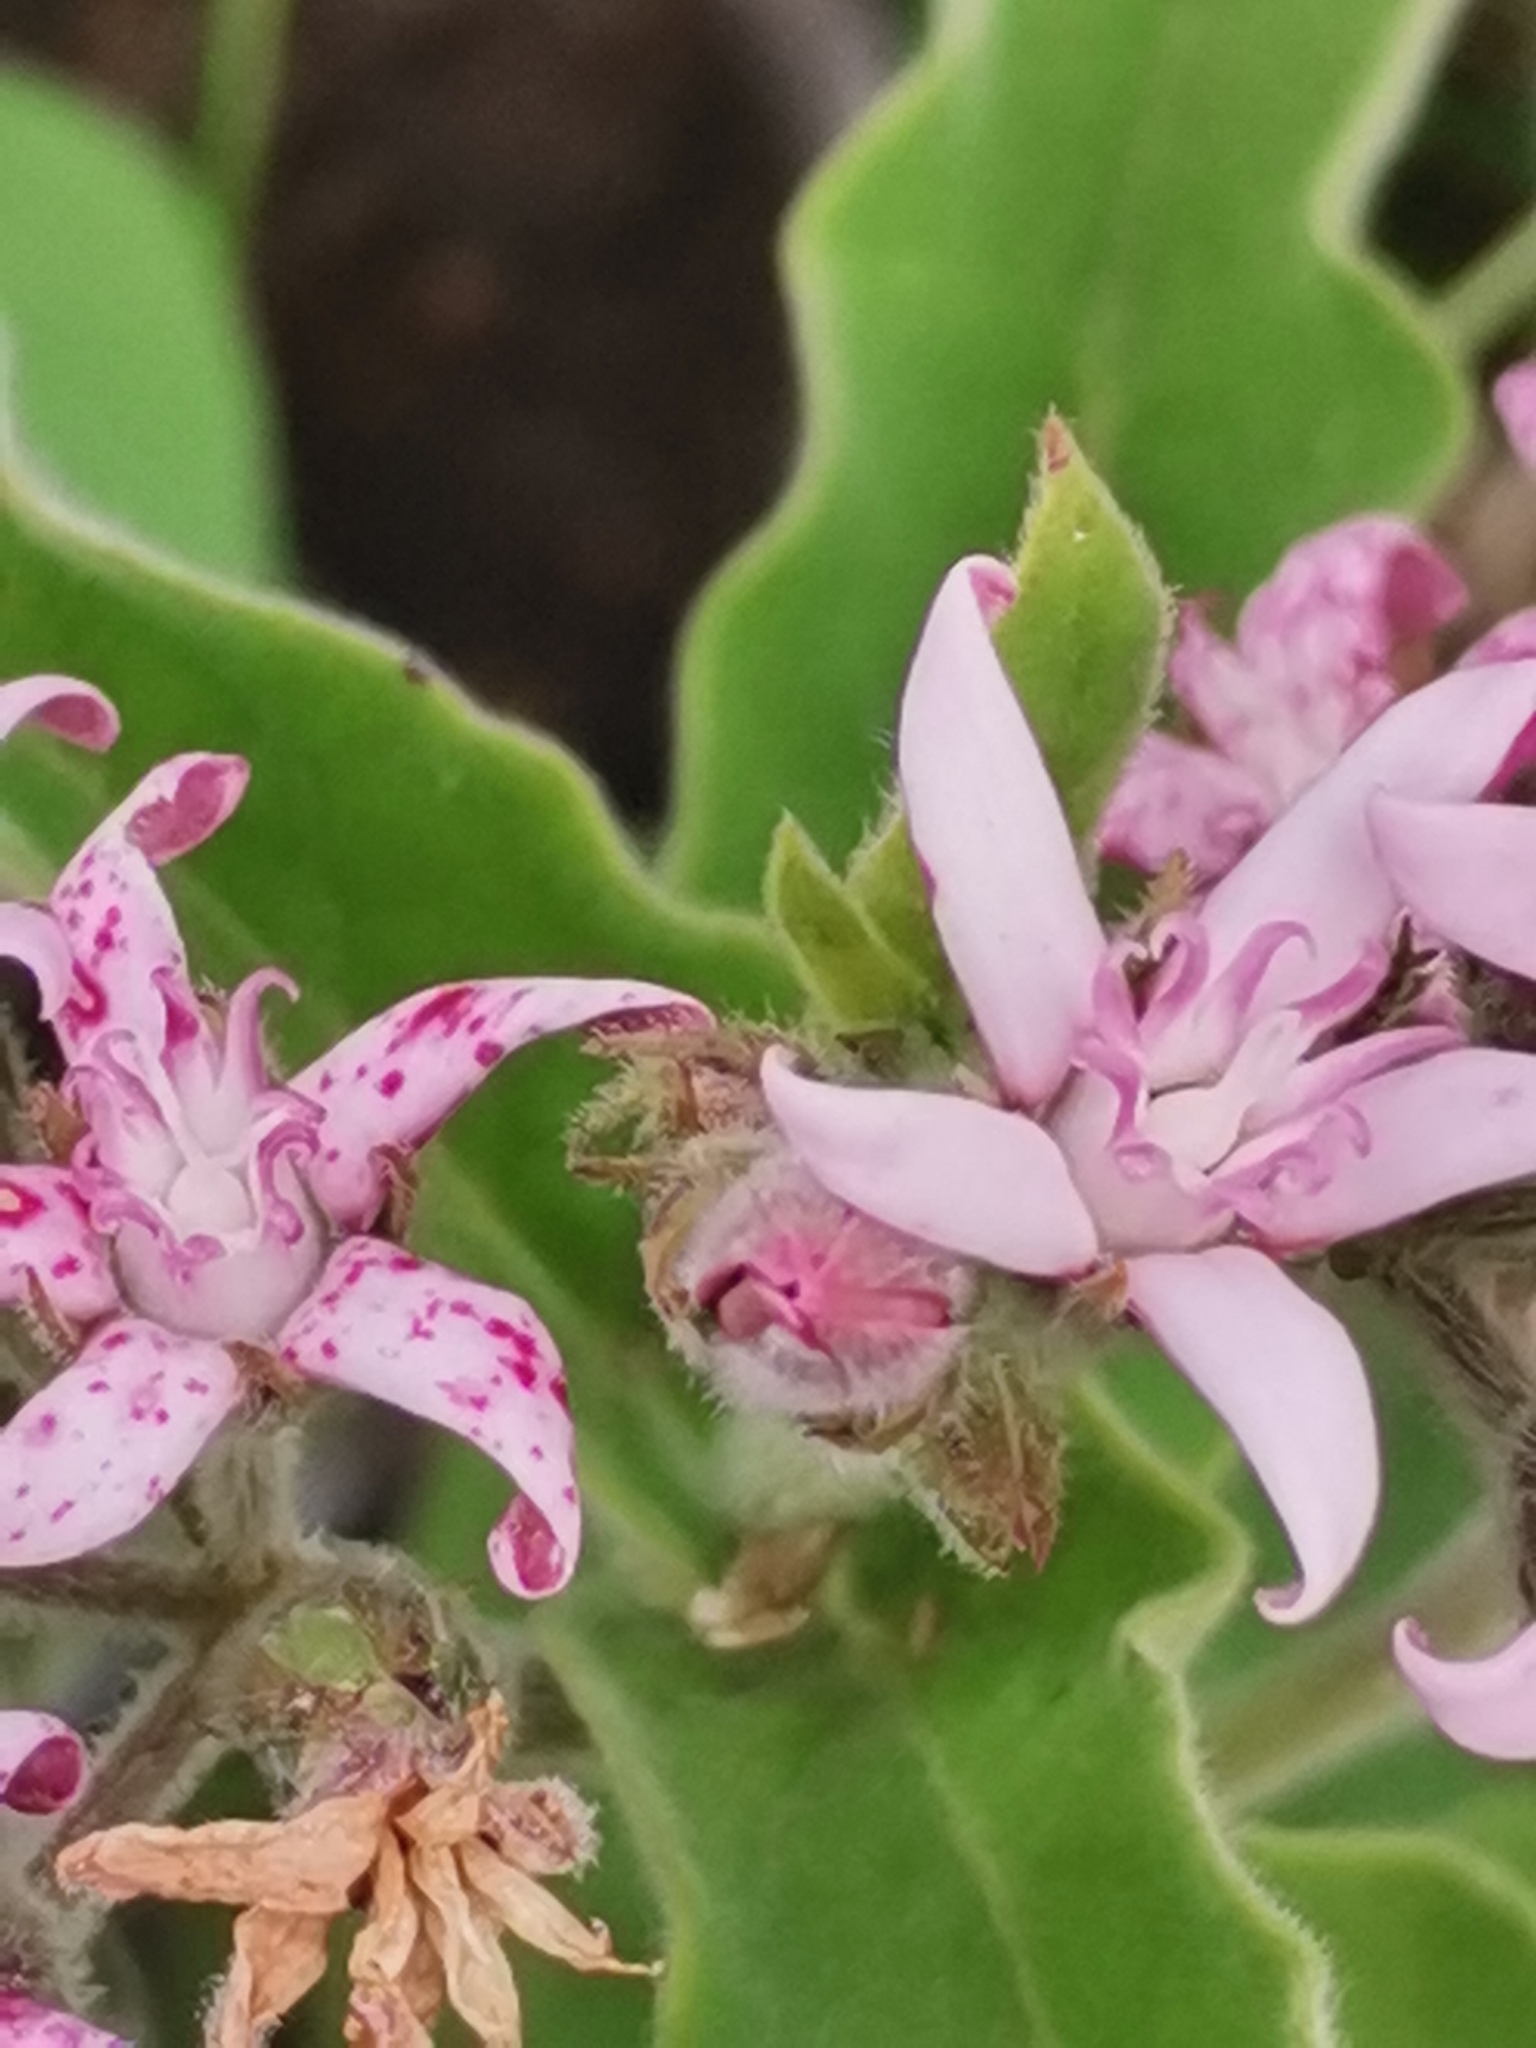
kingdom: Plantae
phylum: Tracheophyta
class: Magnoliopsida
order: Gentianales
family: Apocynaceae
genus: Oxypetalum
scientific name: Oxypetalum solanoides
